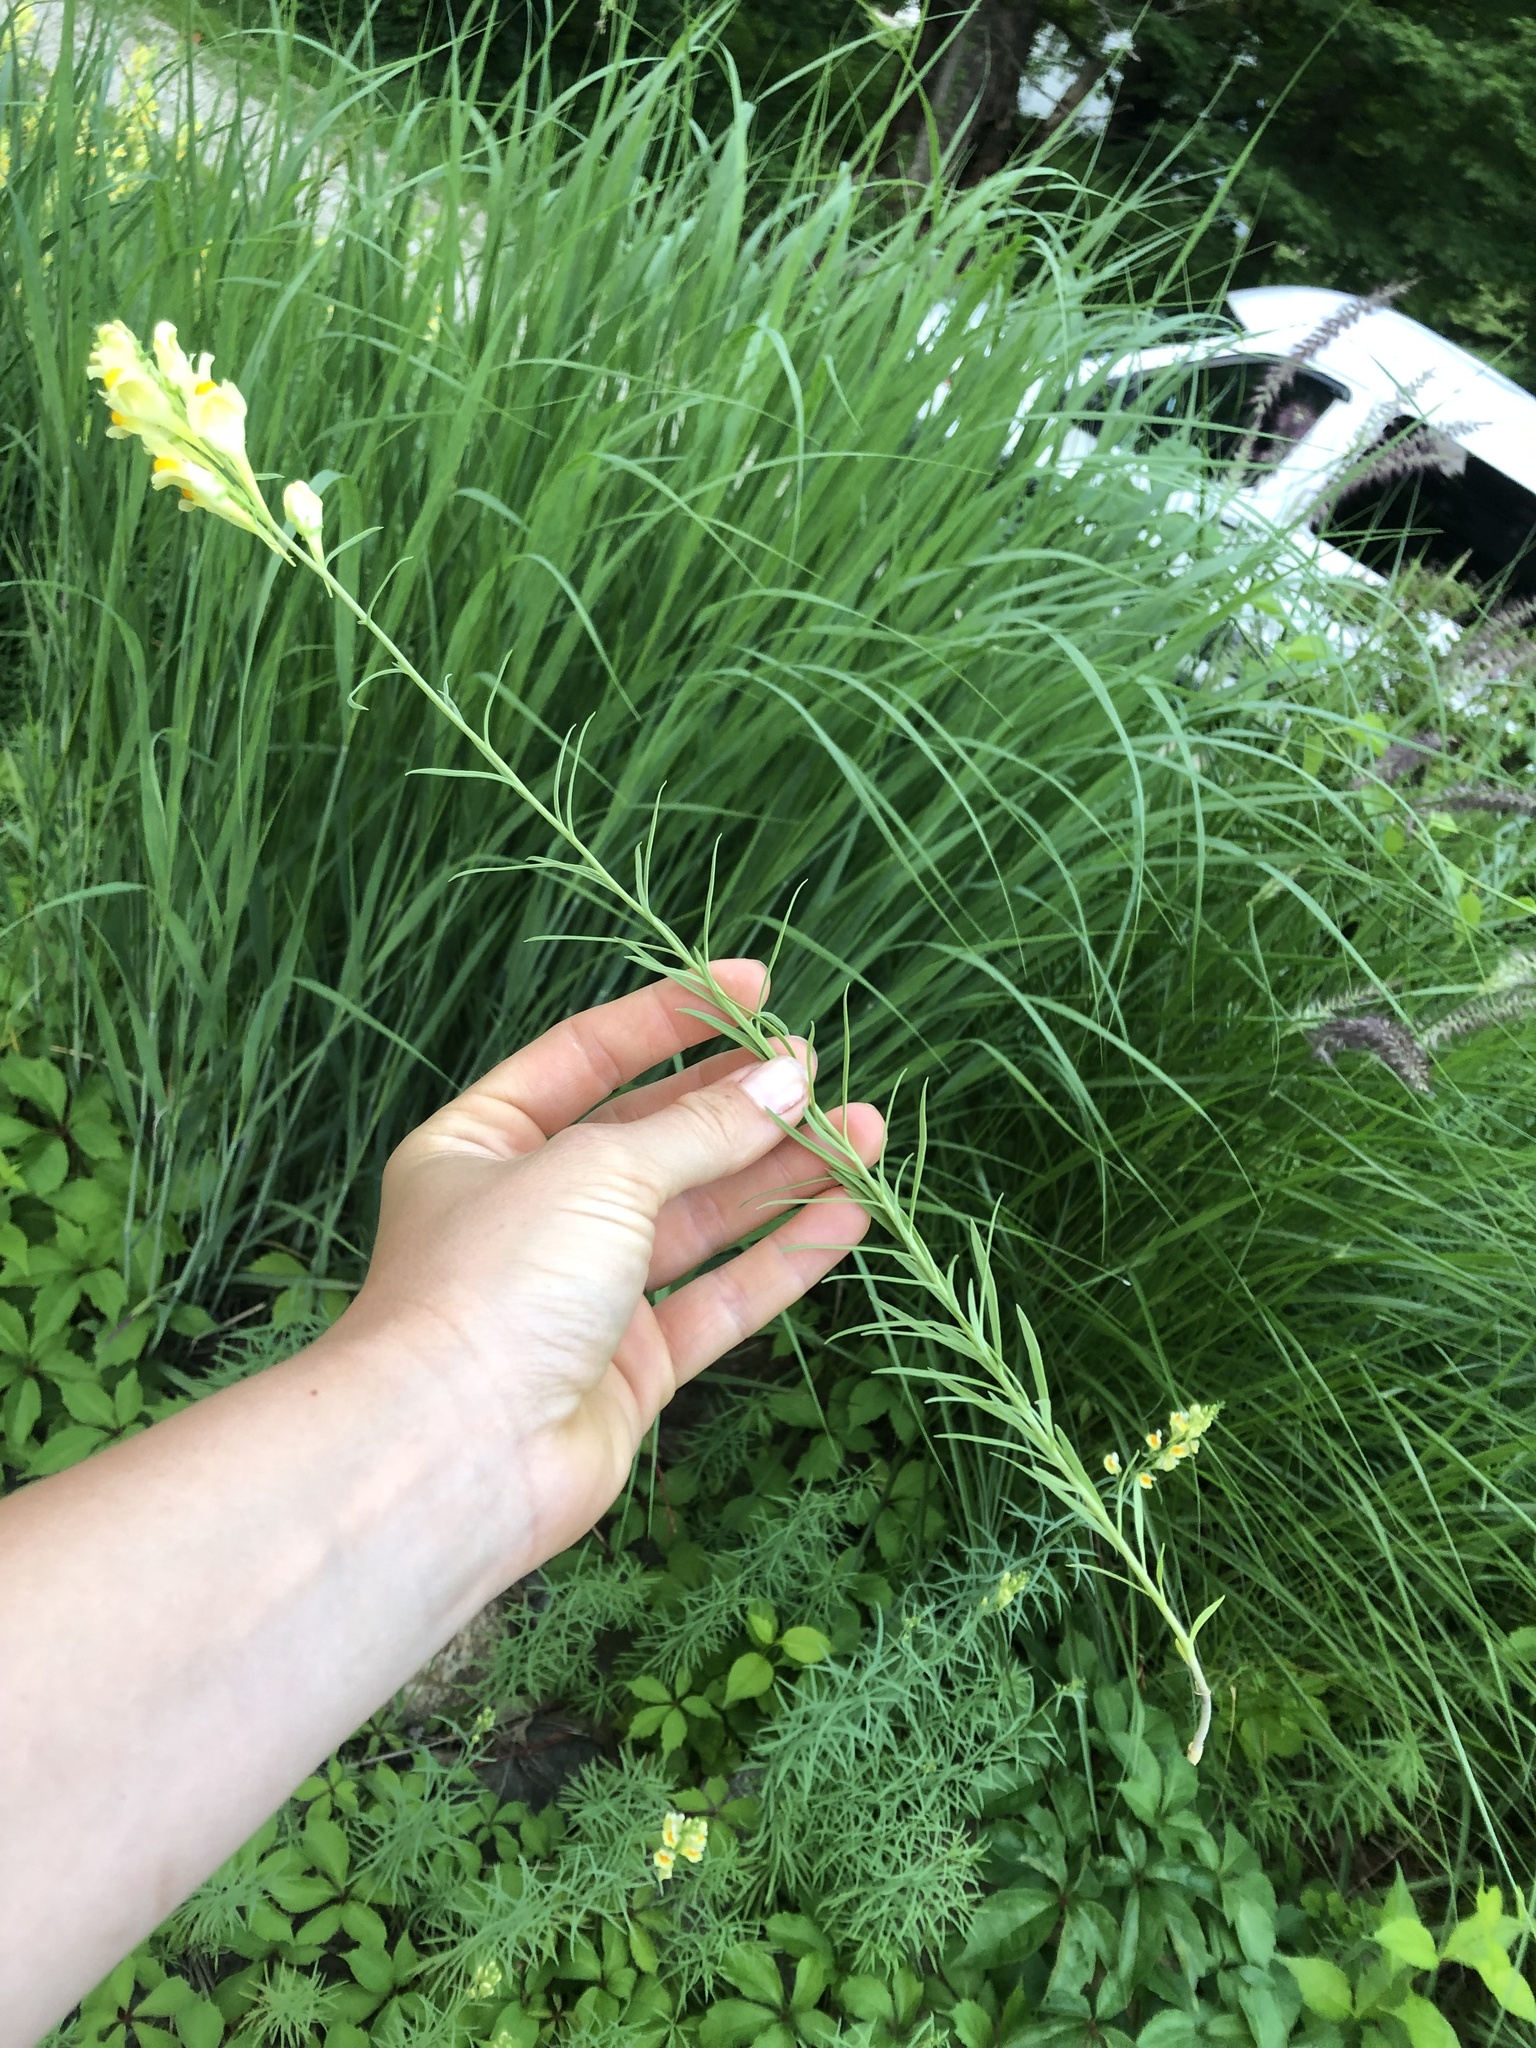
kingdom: Plantae
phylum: Tracheophyta
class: Magnoliopsida
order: Lamiales
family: Plantaginaceae
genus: Linaria
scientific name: Linaria vulgaris
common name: Butter and eggs
